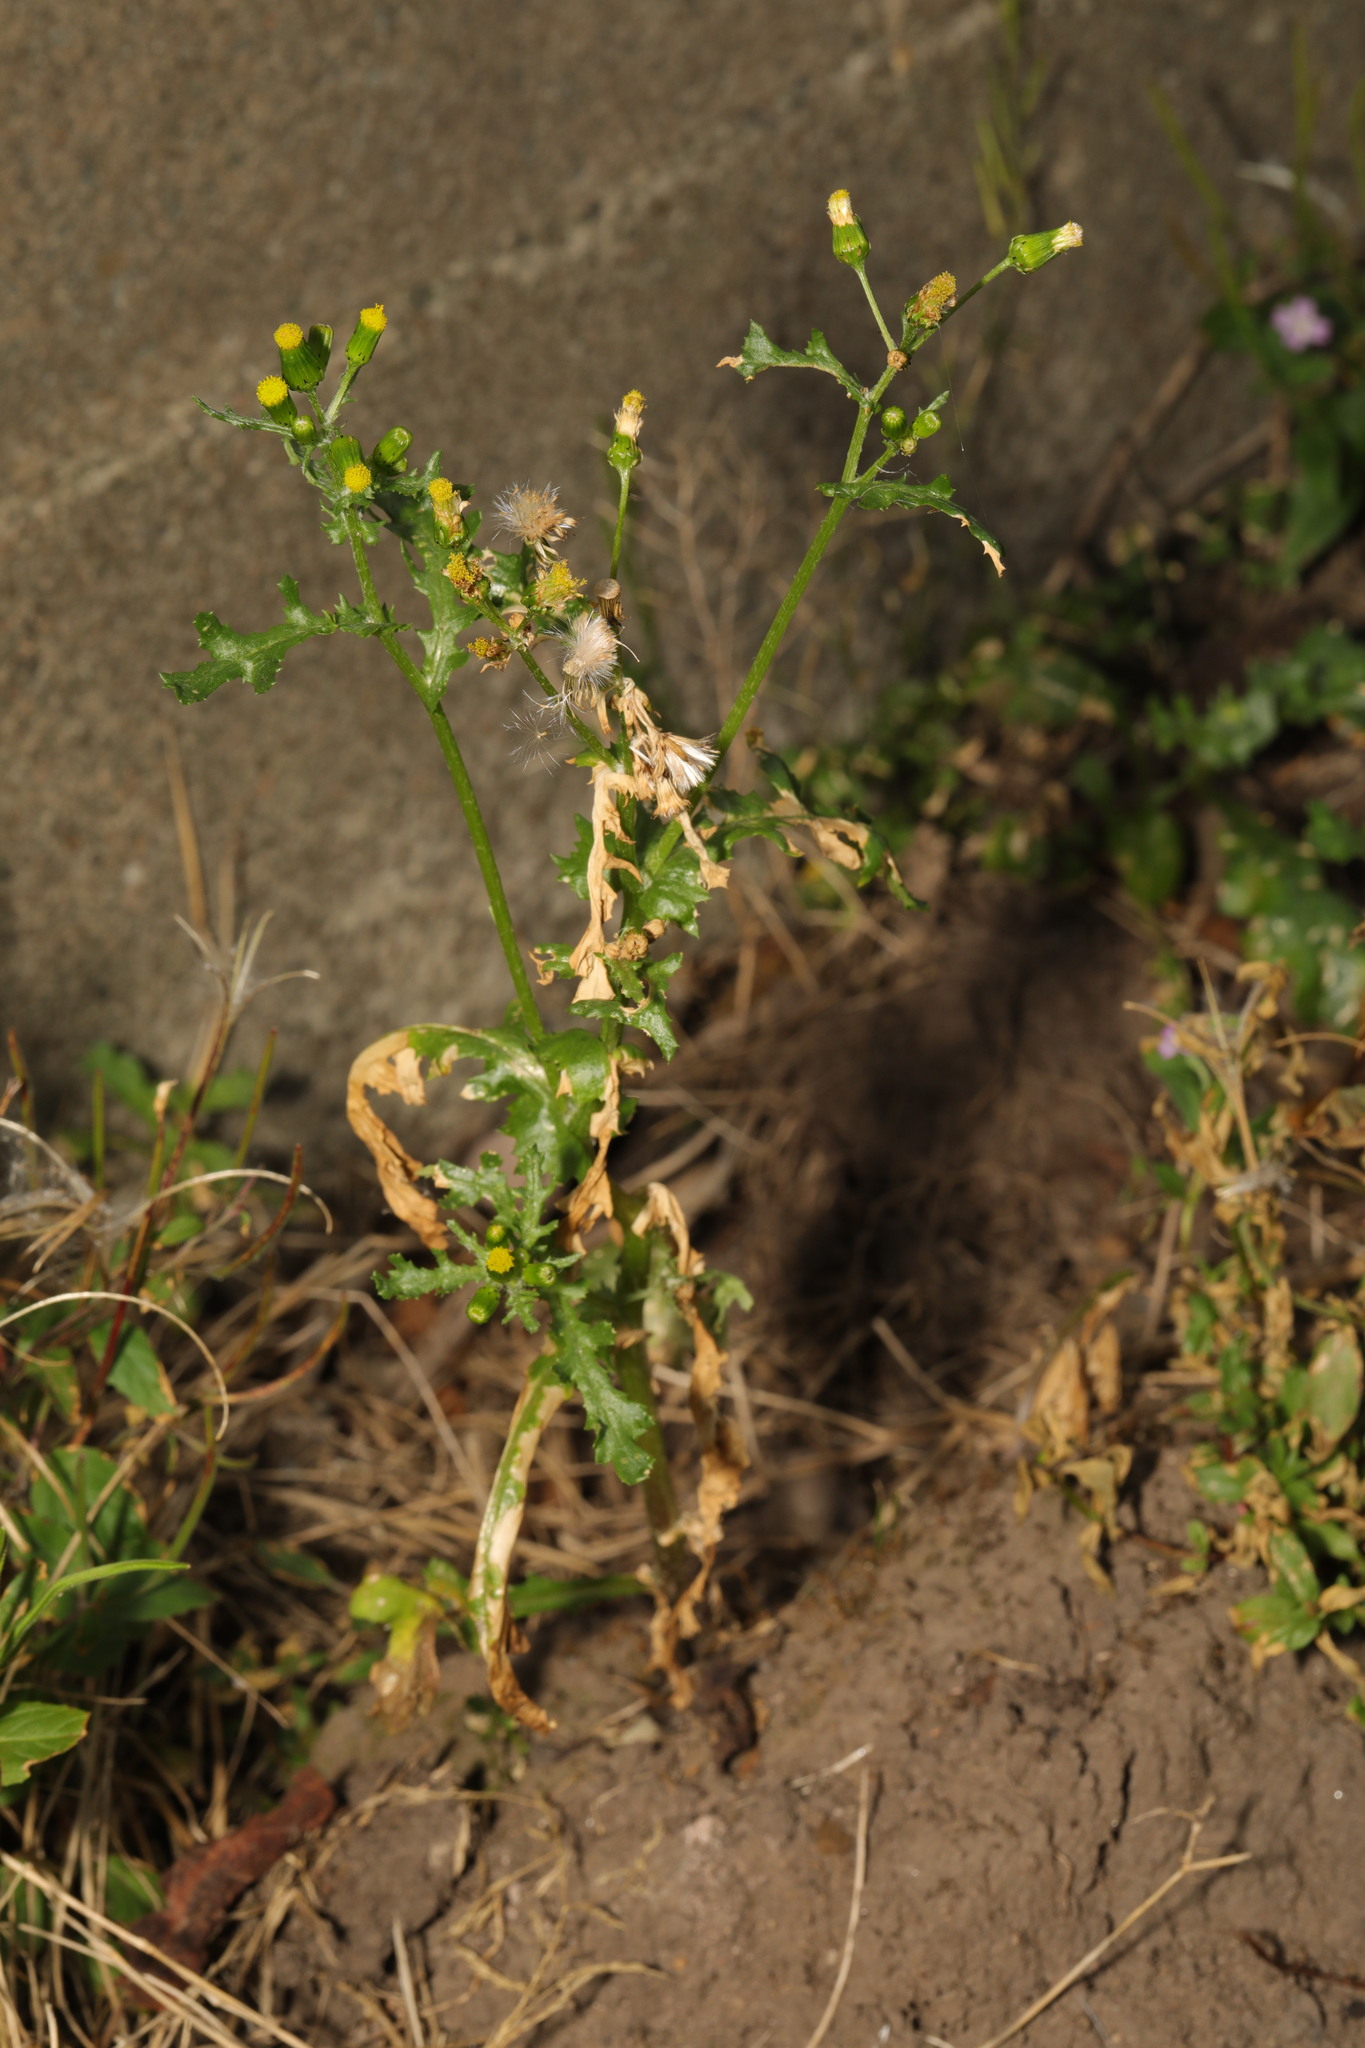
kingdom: Plantae
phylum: Tracheophyta
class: Magnoliopsida
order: Asterales
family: Asteraceae
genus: Senecio
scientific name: Senecio vulgaris
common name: Old-man-in-the-spring
